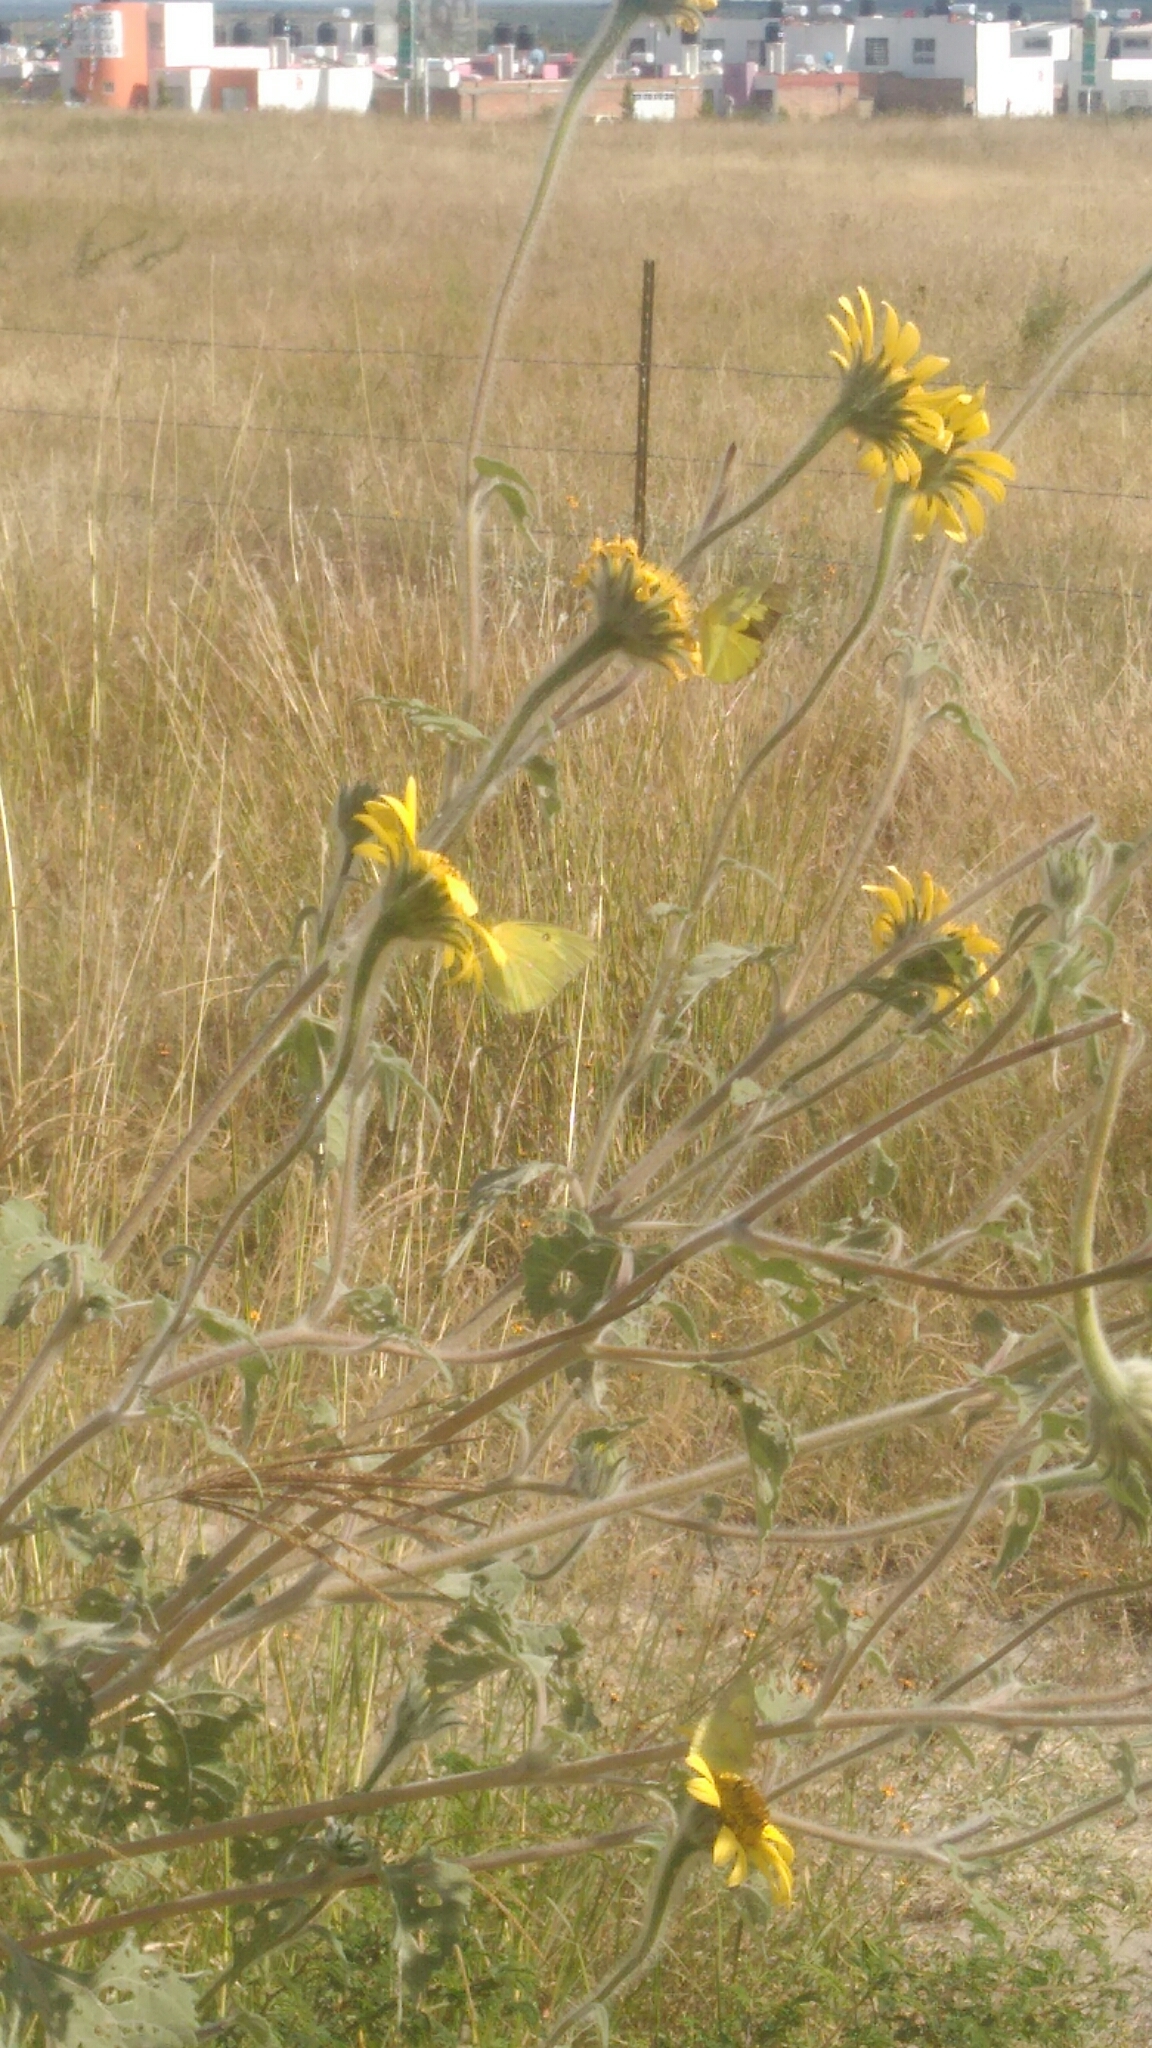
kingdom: Animalia
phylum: Arthropoda
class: Insecta
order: Lepidoptera
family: Pieridae
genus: Zerene
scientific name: Zerene cesonia
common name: Southern dogface
